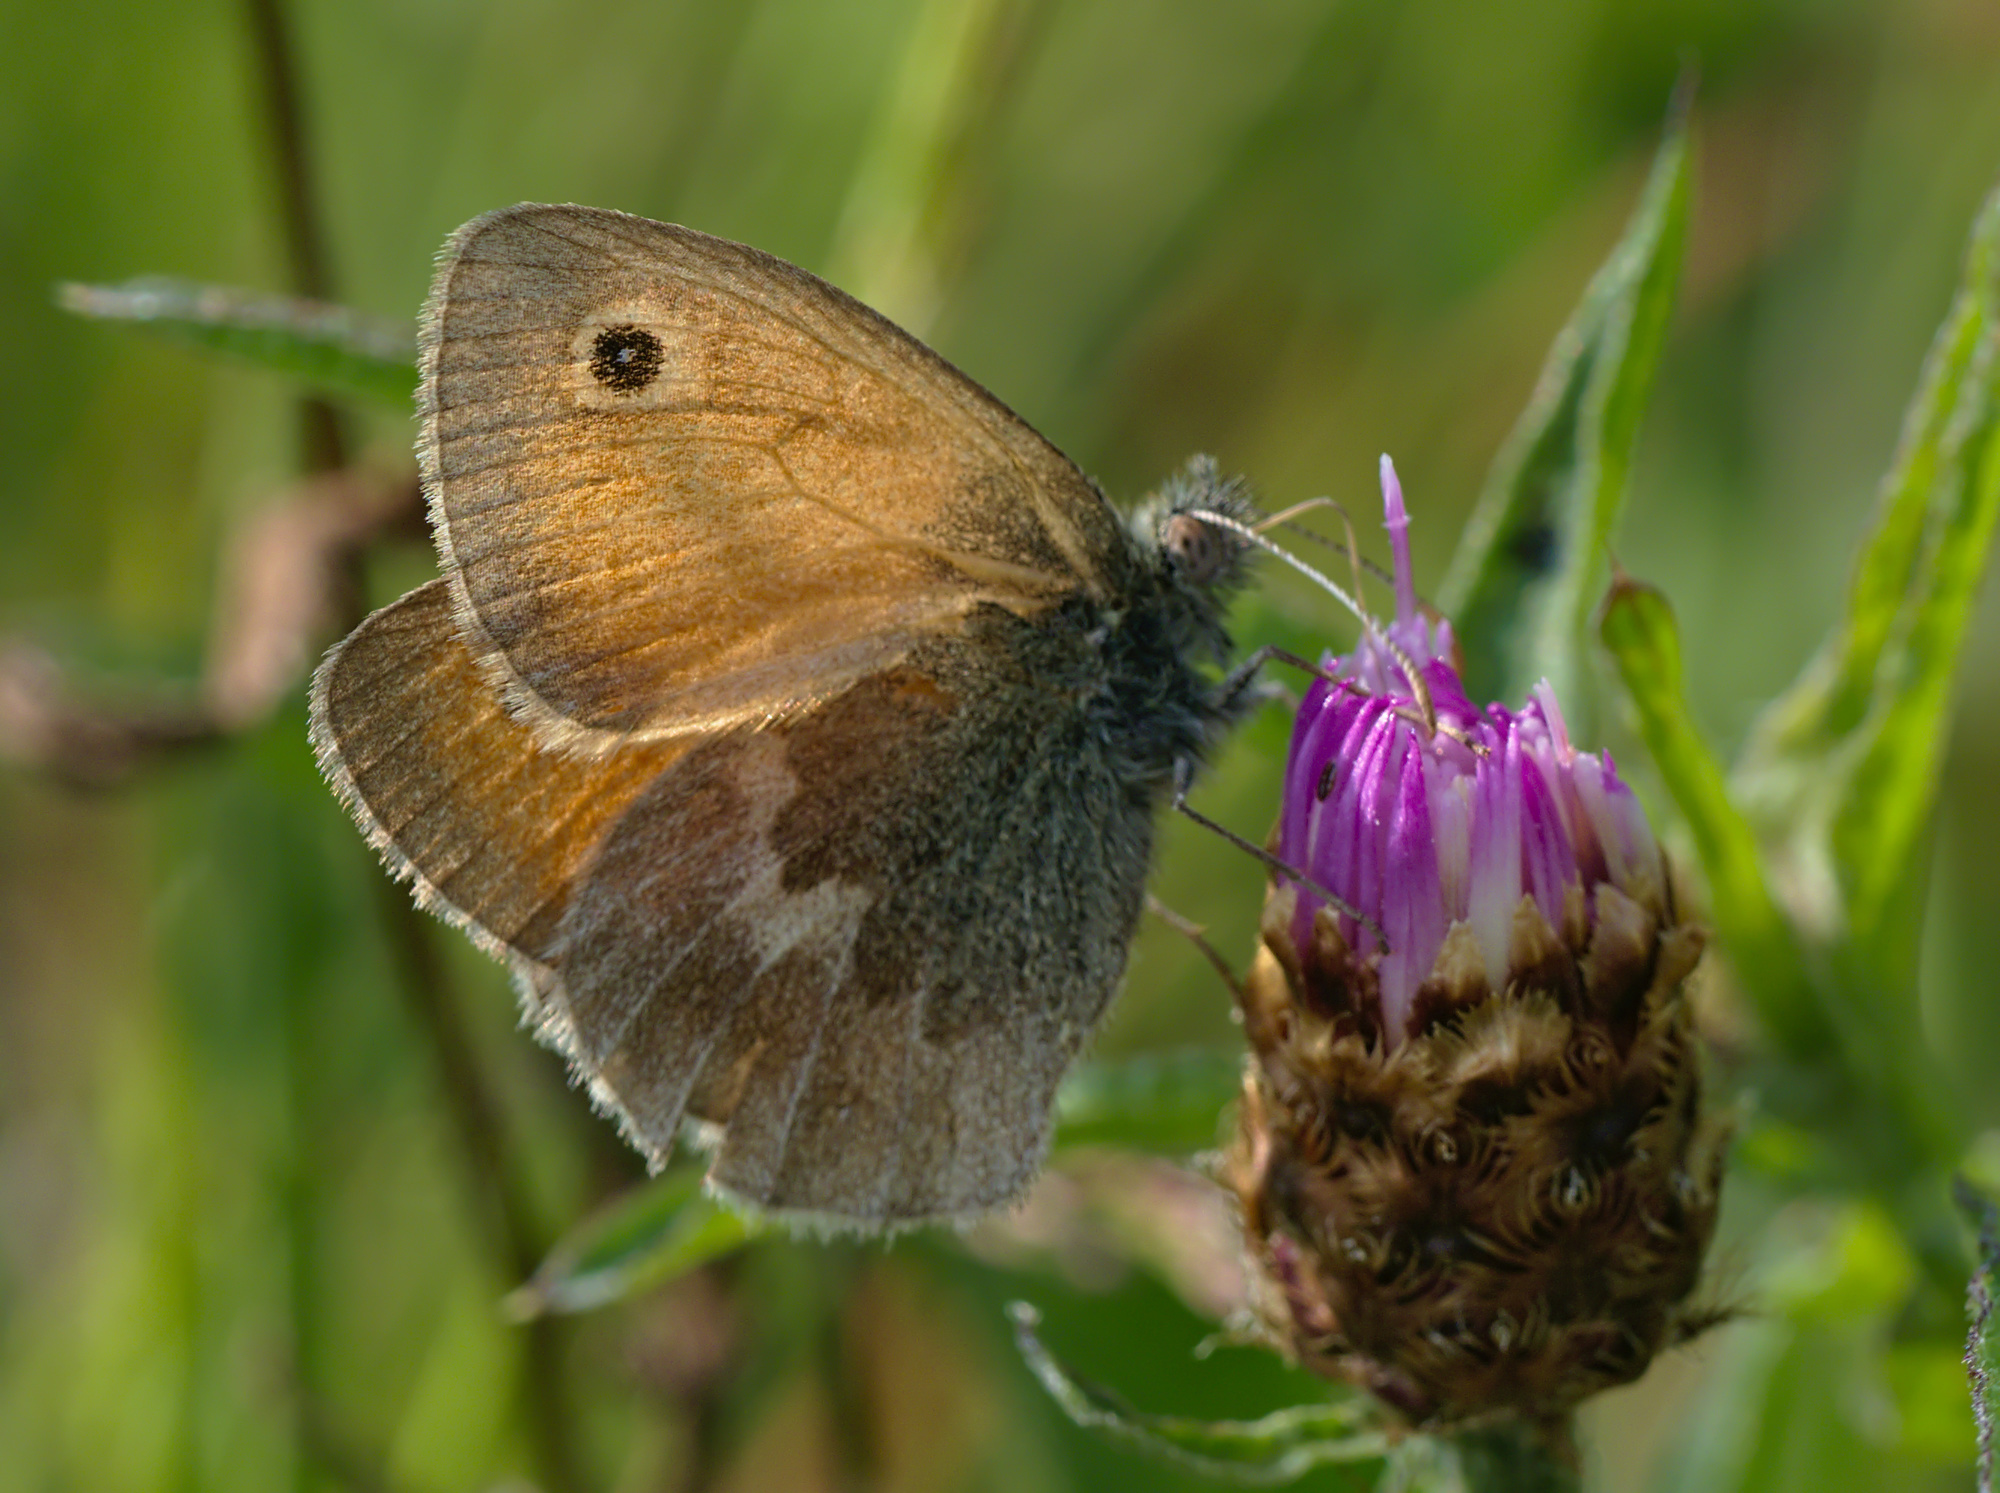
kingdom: Animalia
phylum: Arthropoda
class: Insecta
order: Lepidoptera
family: Nymphalidae
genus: Coenonympha
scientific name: Coenonympha pamphilus
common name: Small heath
